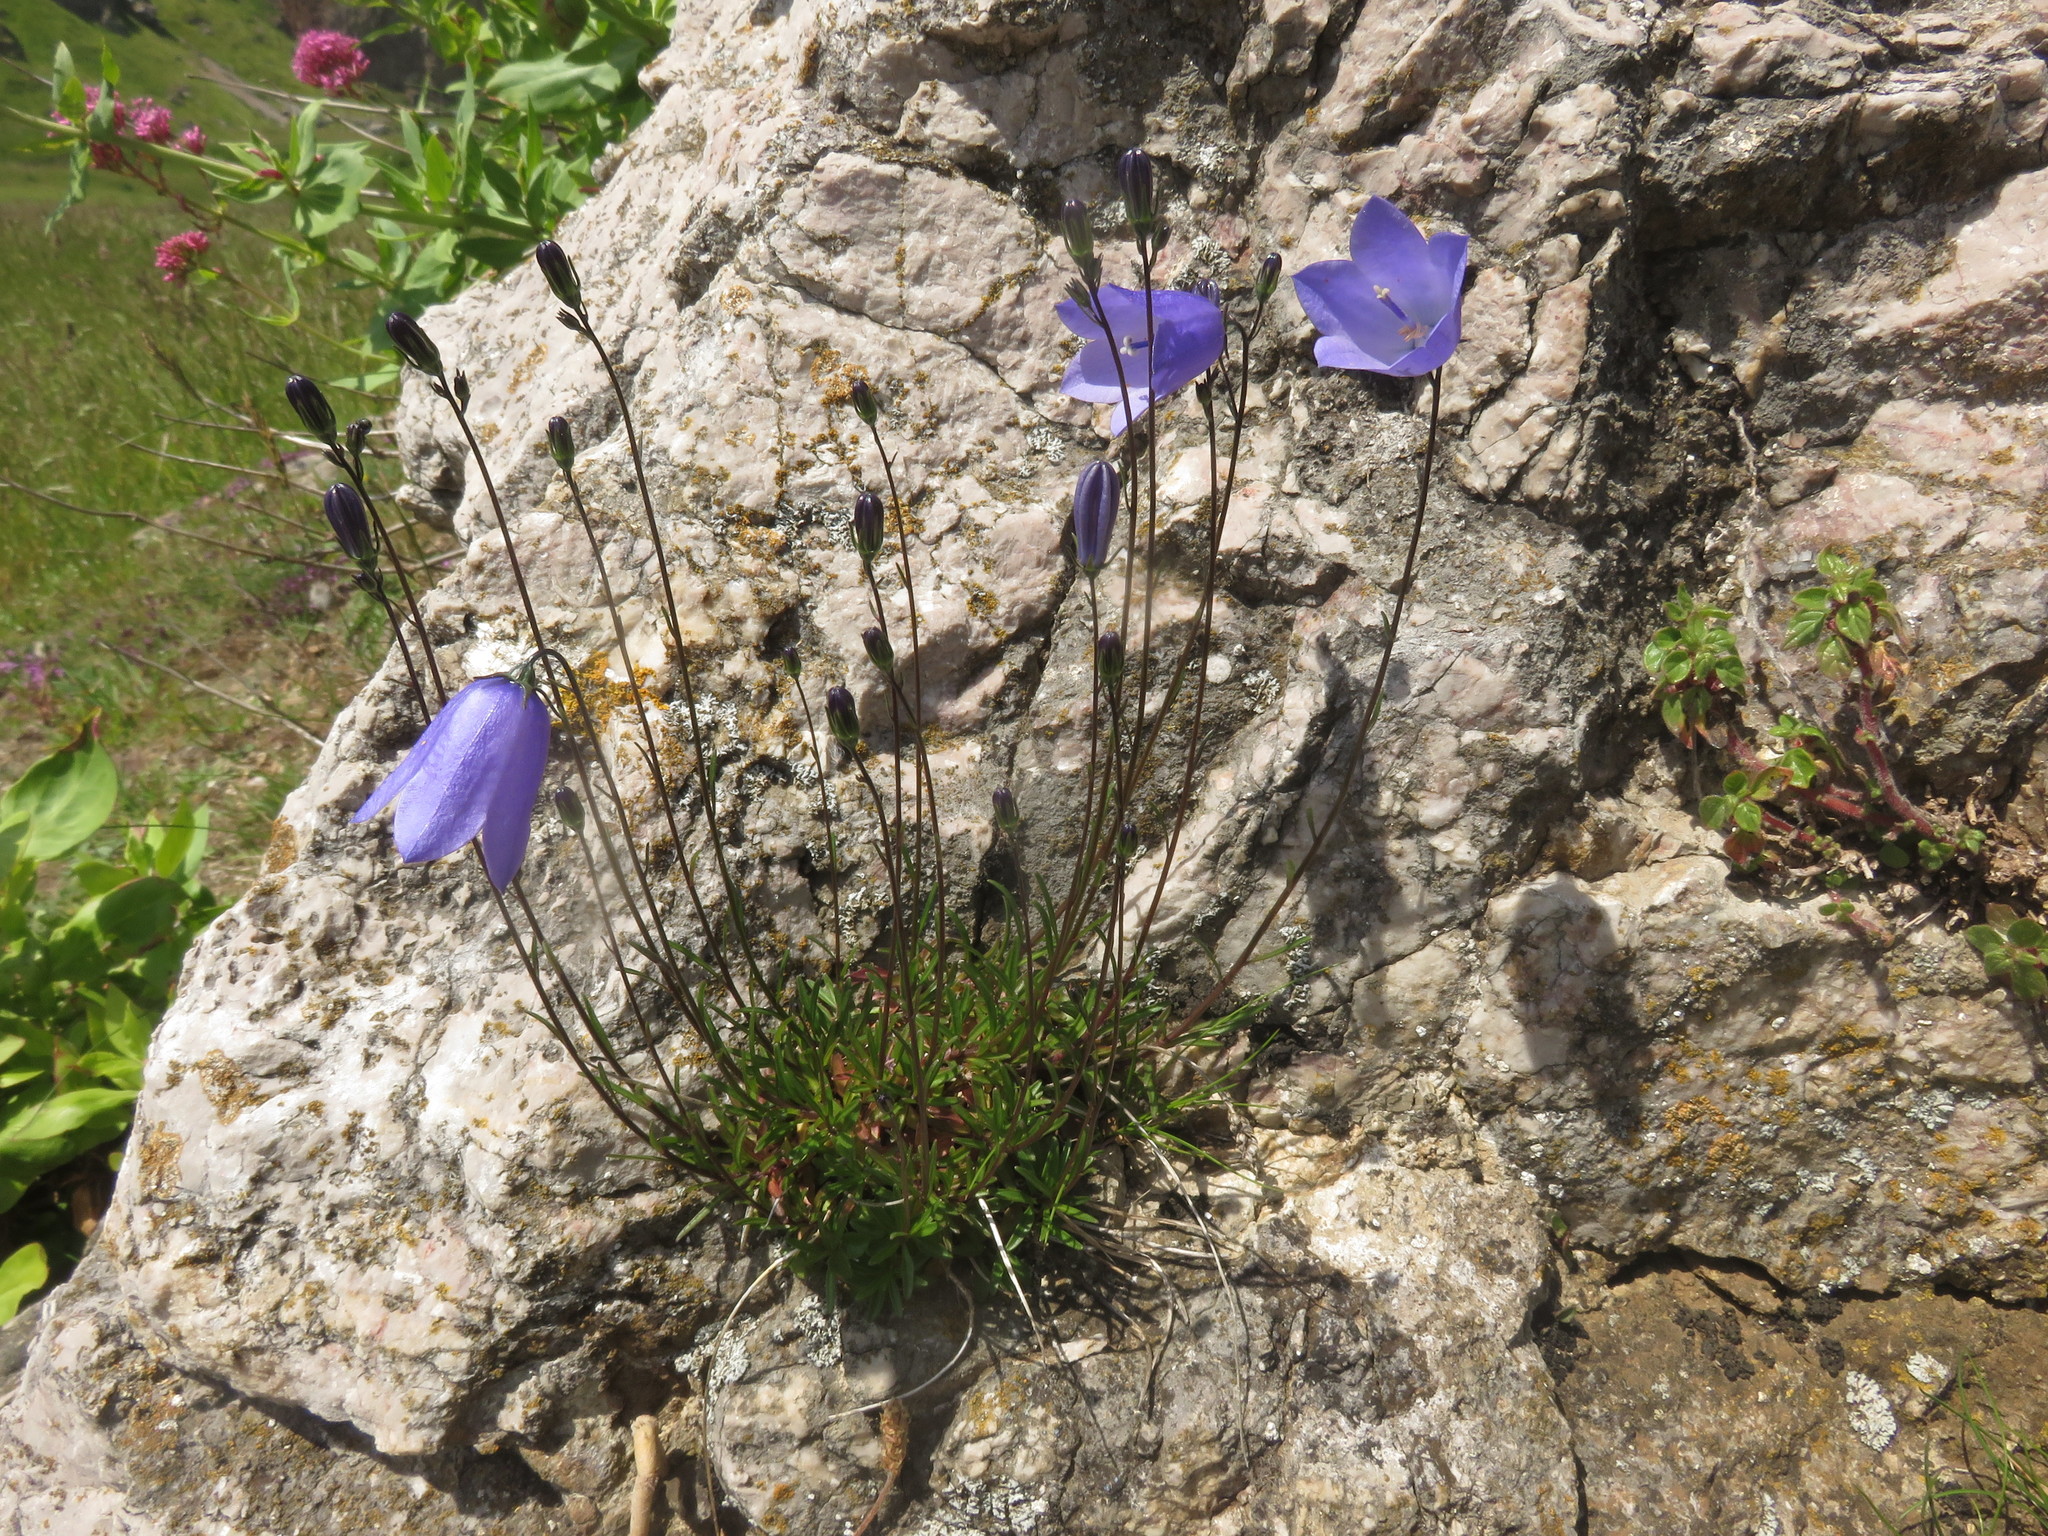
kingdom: Plantae
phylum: Tracheophyta
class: Magnoliopsida
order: Asterales
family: Campanulaceae
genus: Campanula
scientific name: Campanula rotundifolia
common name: Harebell
